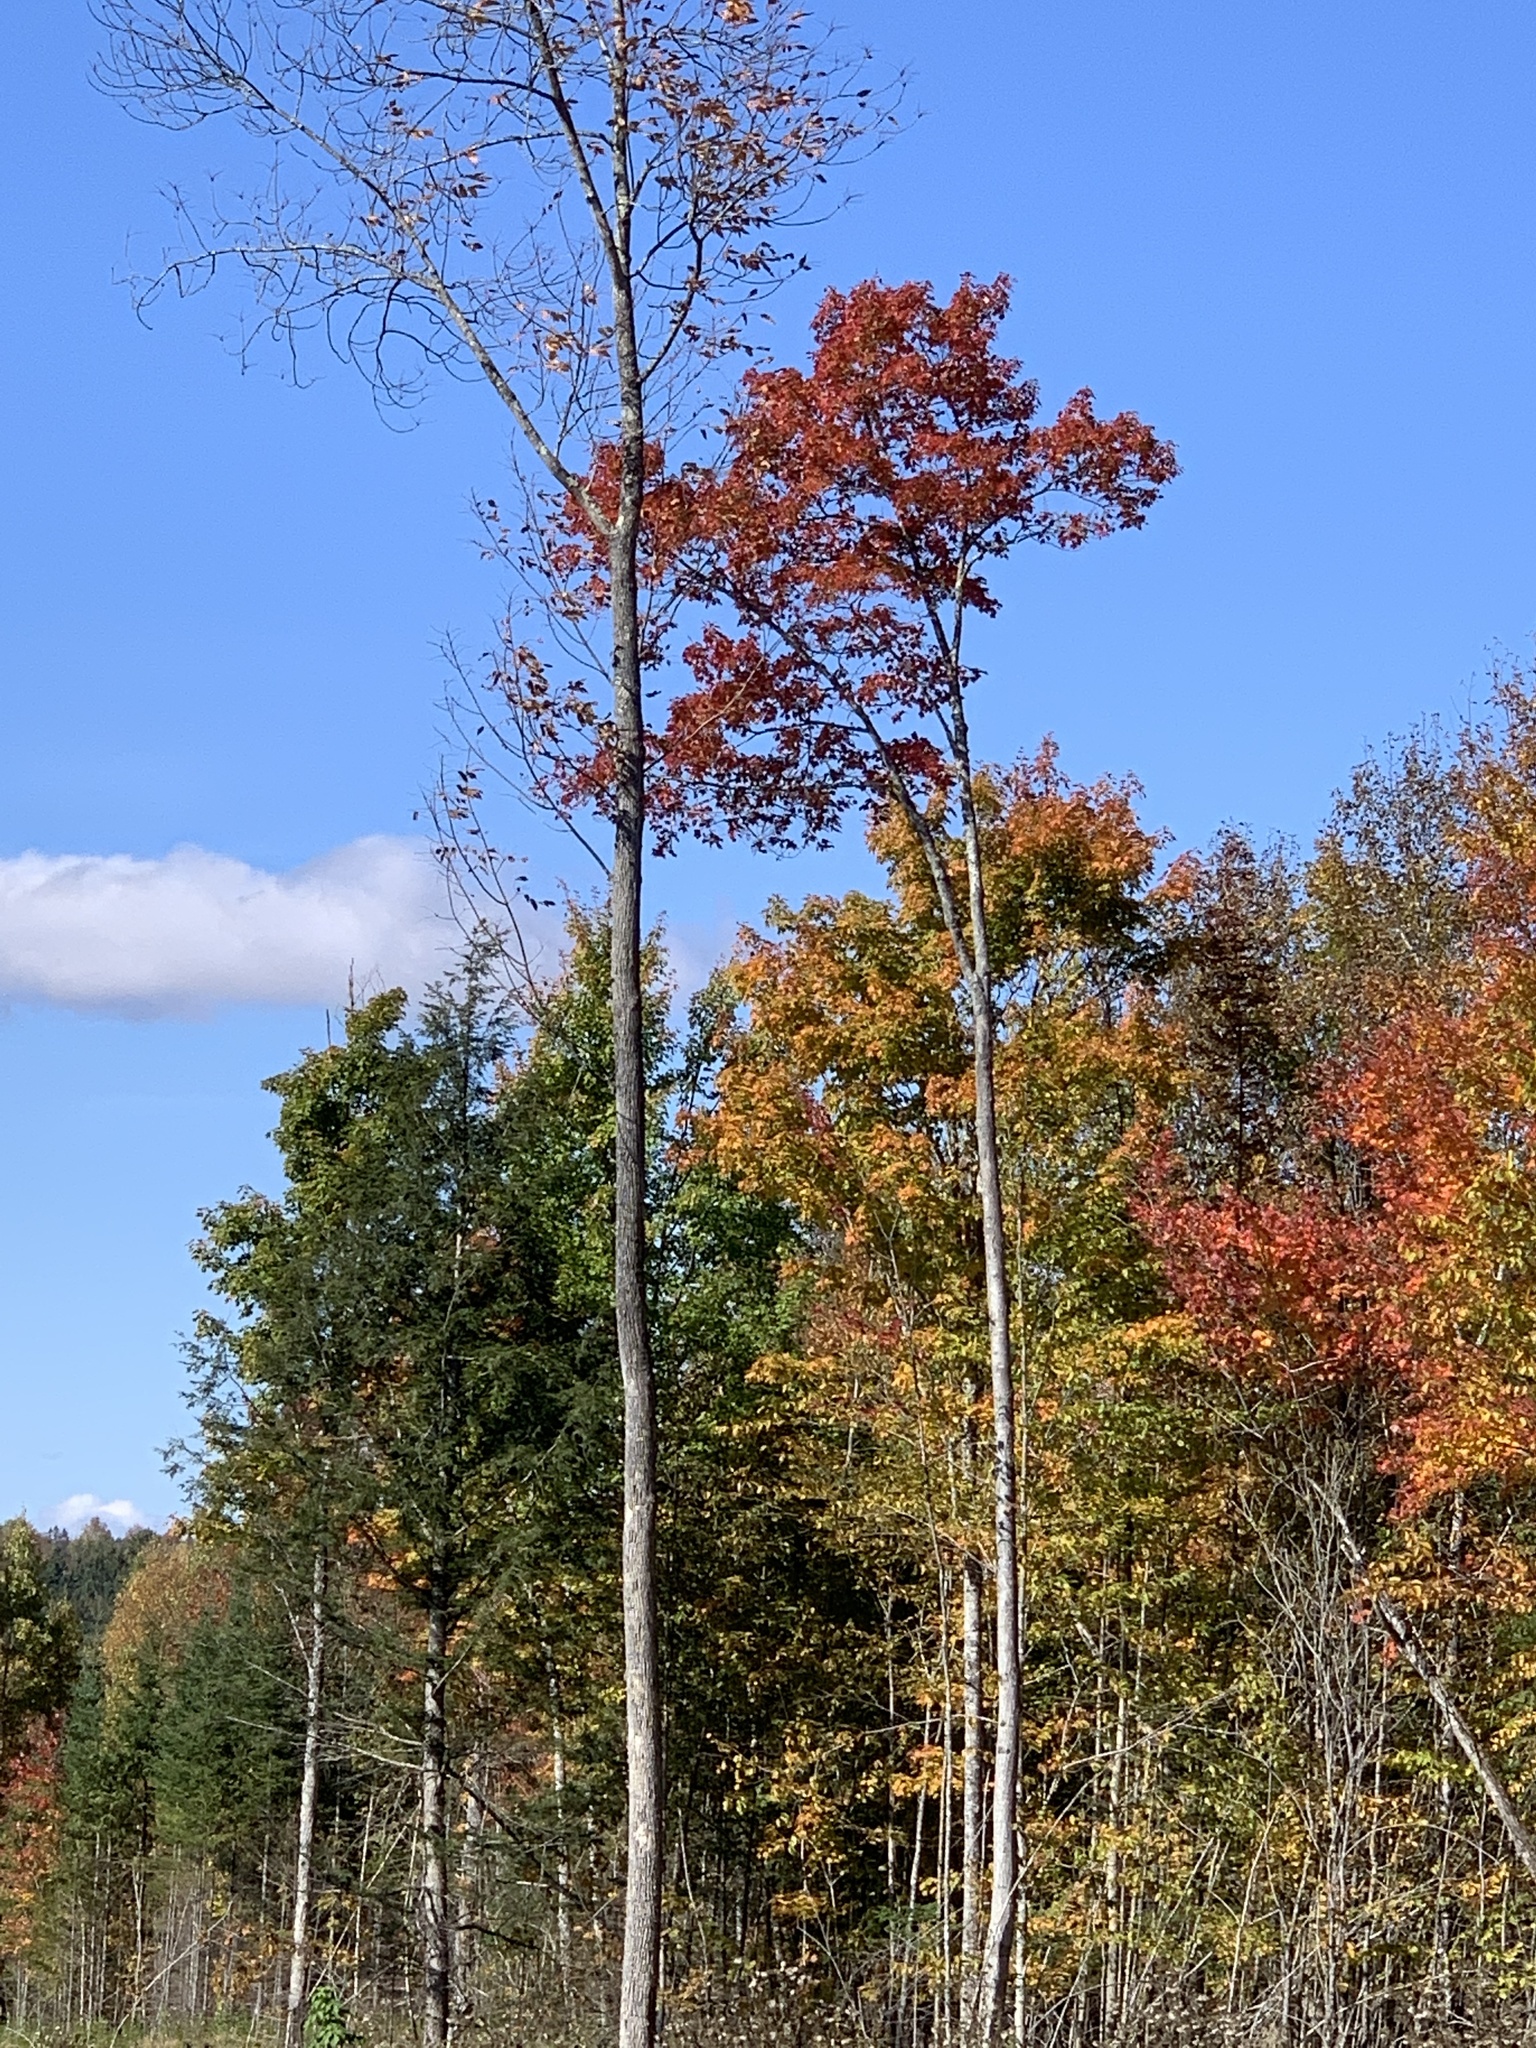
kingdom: Plantae
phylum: Tracheophyta
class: Magnoliopsida
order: Sapindales
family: Sapindaceae
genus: Acer
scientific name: Acer rubrum
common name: Red maple
